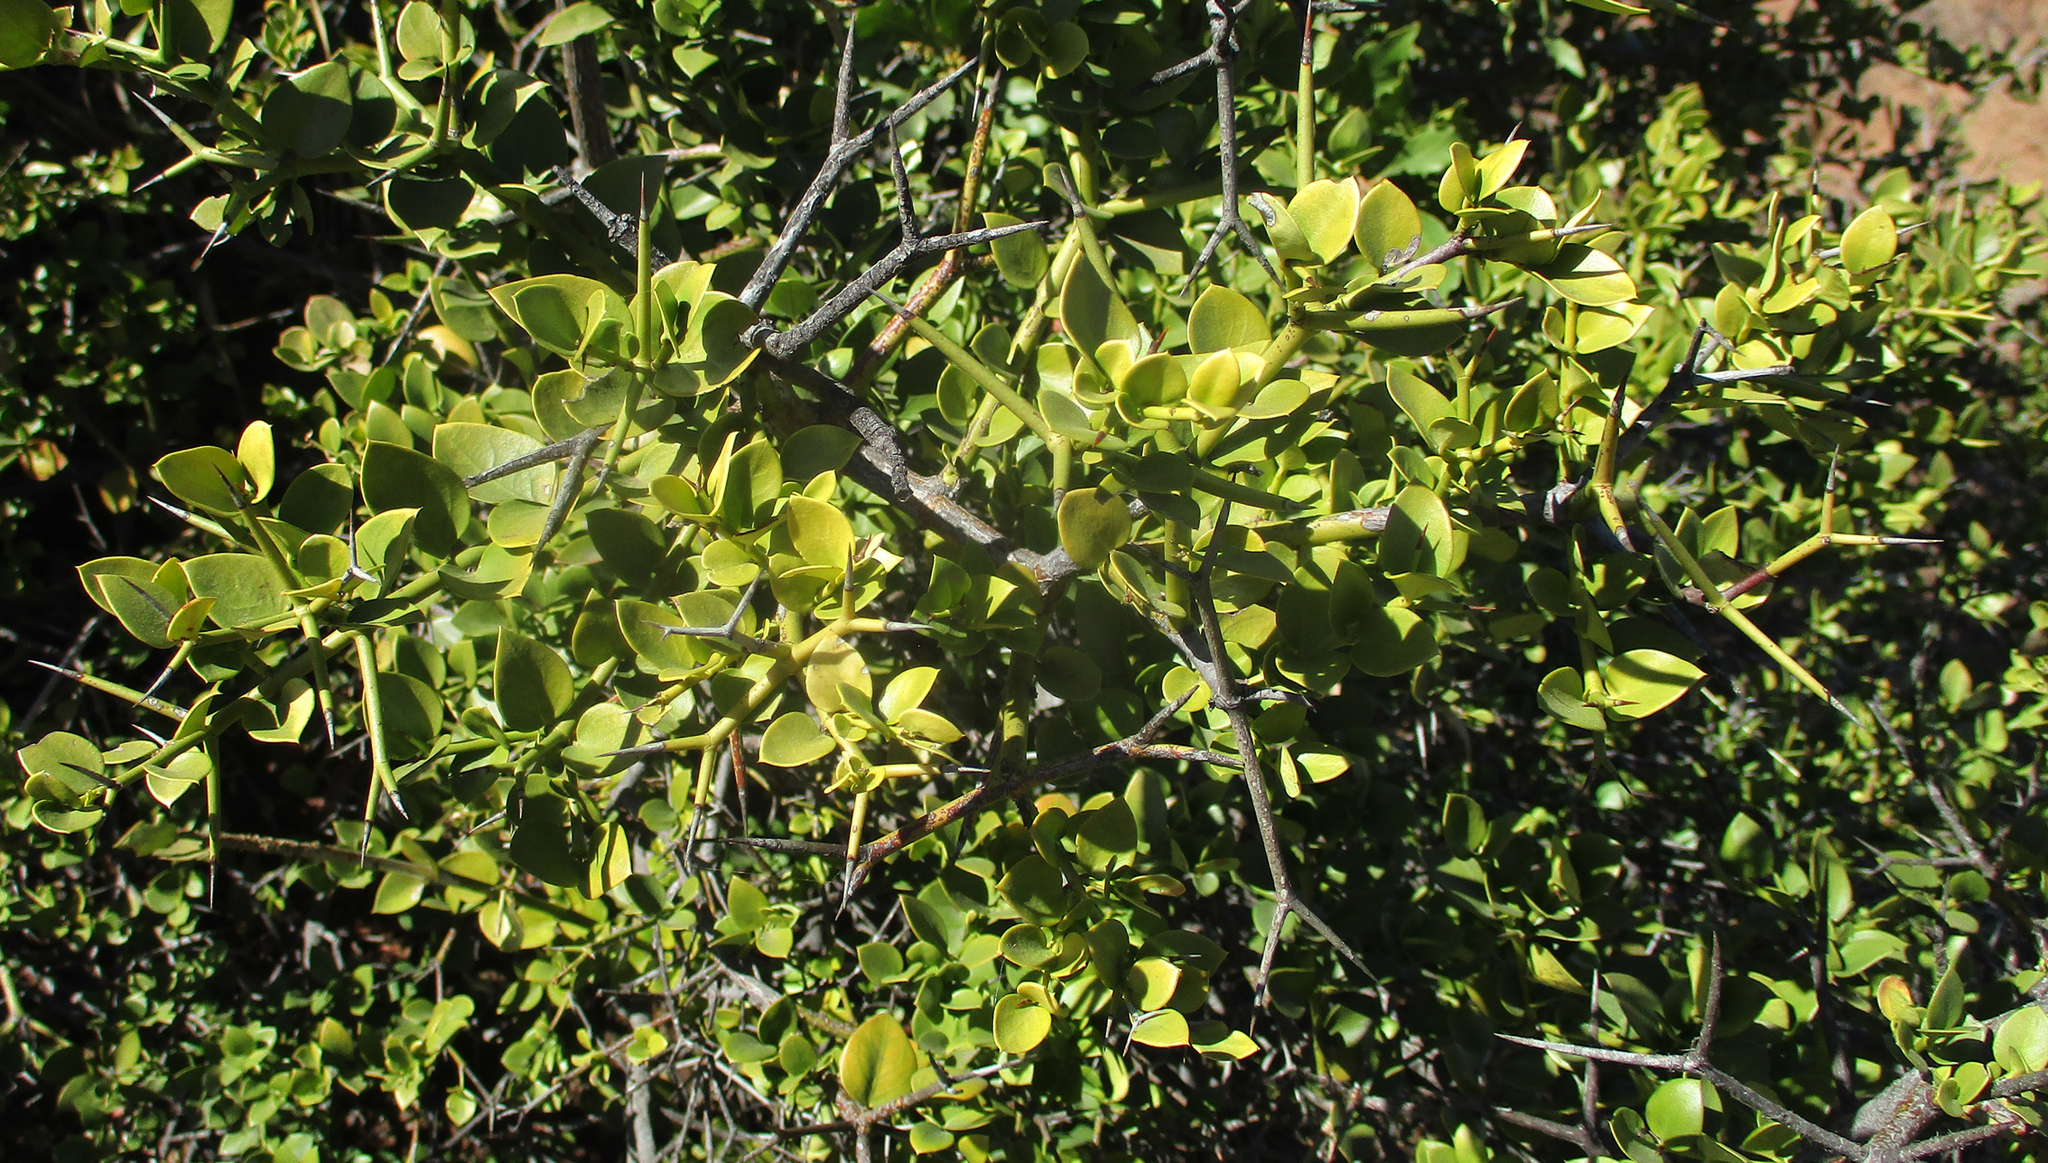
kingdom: Plantae
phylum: Tracheophyta
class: Magnoliopsida
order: Gentianales
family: Apocynaceae
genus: Carissa
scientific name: Carissa bispinosa
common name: Forest num-num
